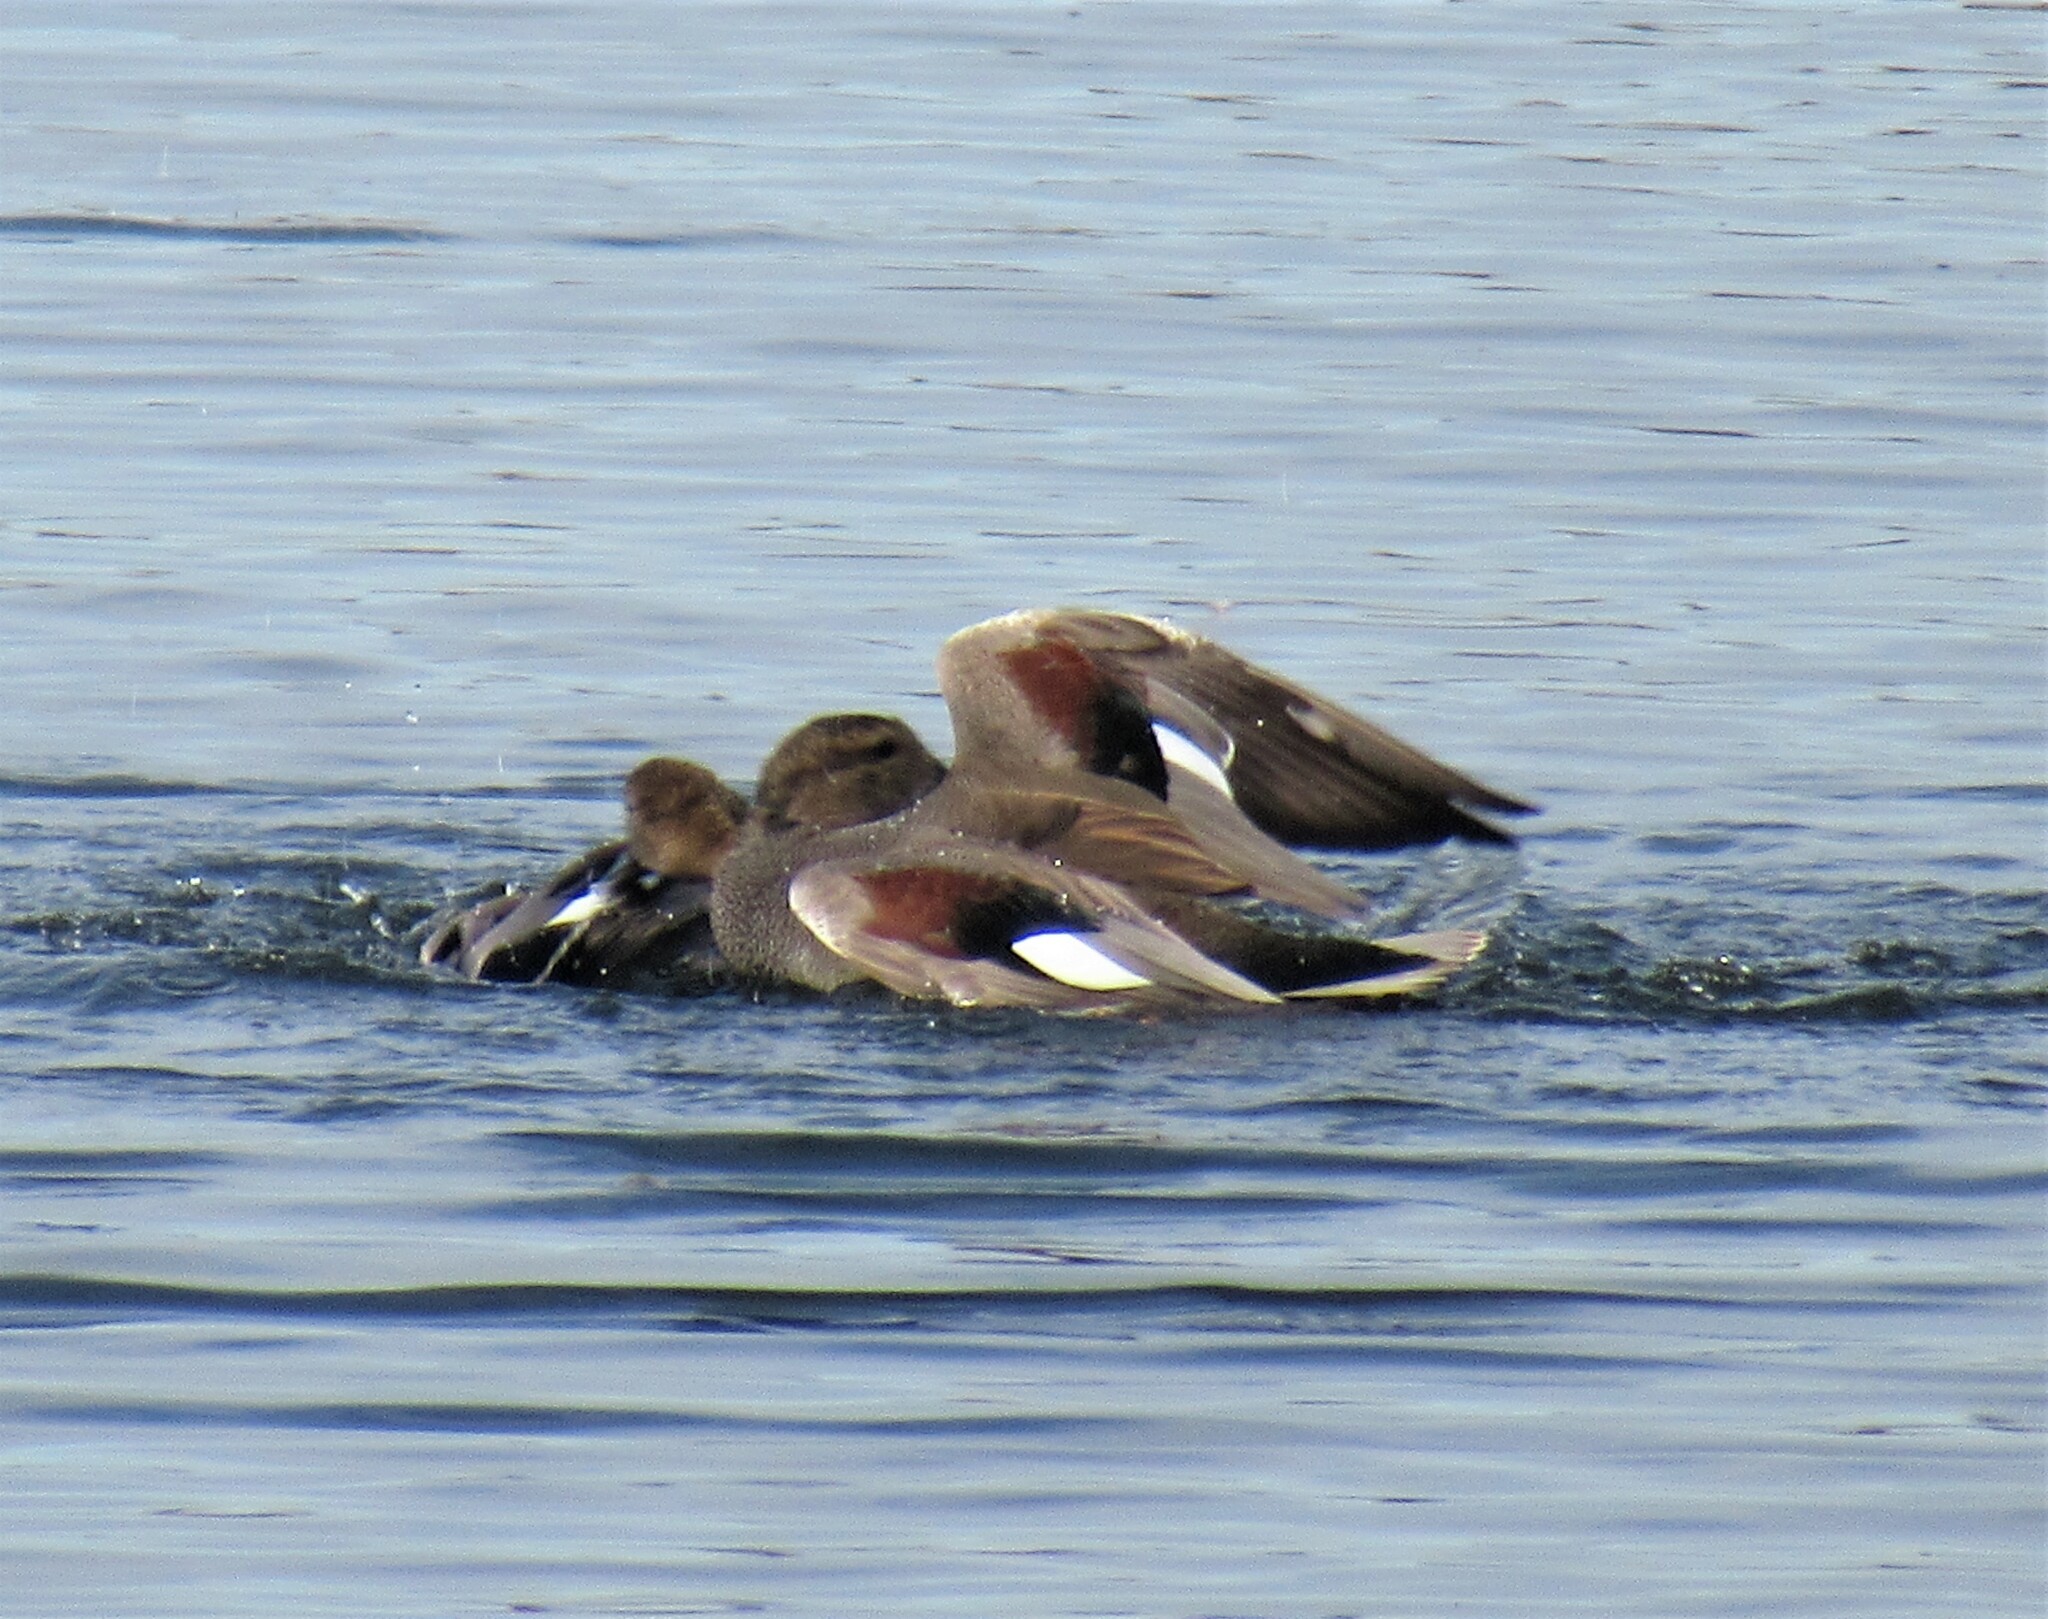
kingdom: Animalia
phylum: Chordata
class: Aves
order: Anseriformes
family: Anatidae
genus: Mareca
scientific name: Mareca strepera
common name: Gadwall
